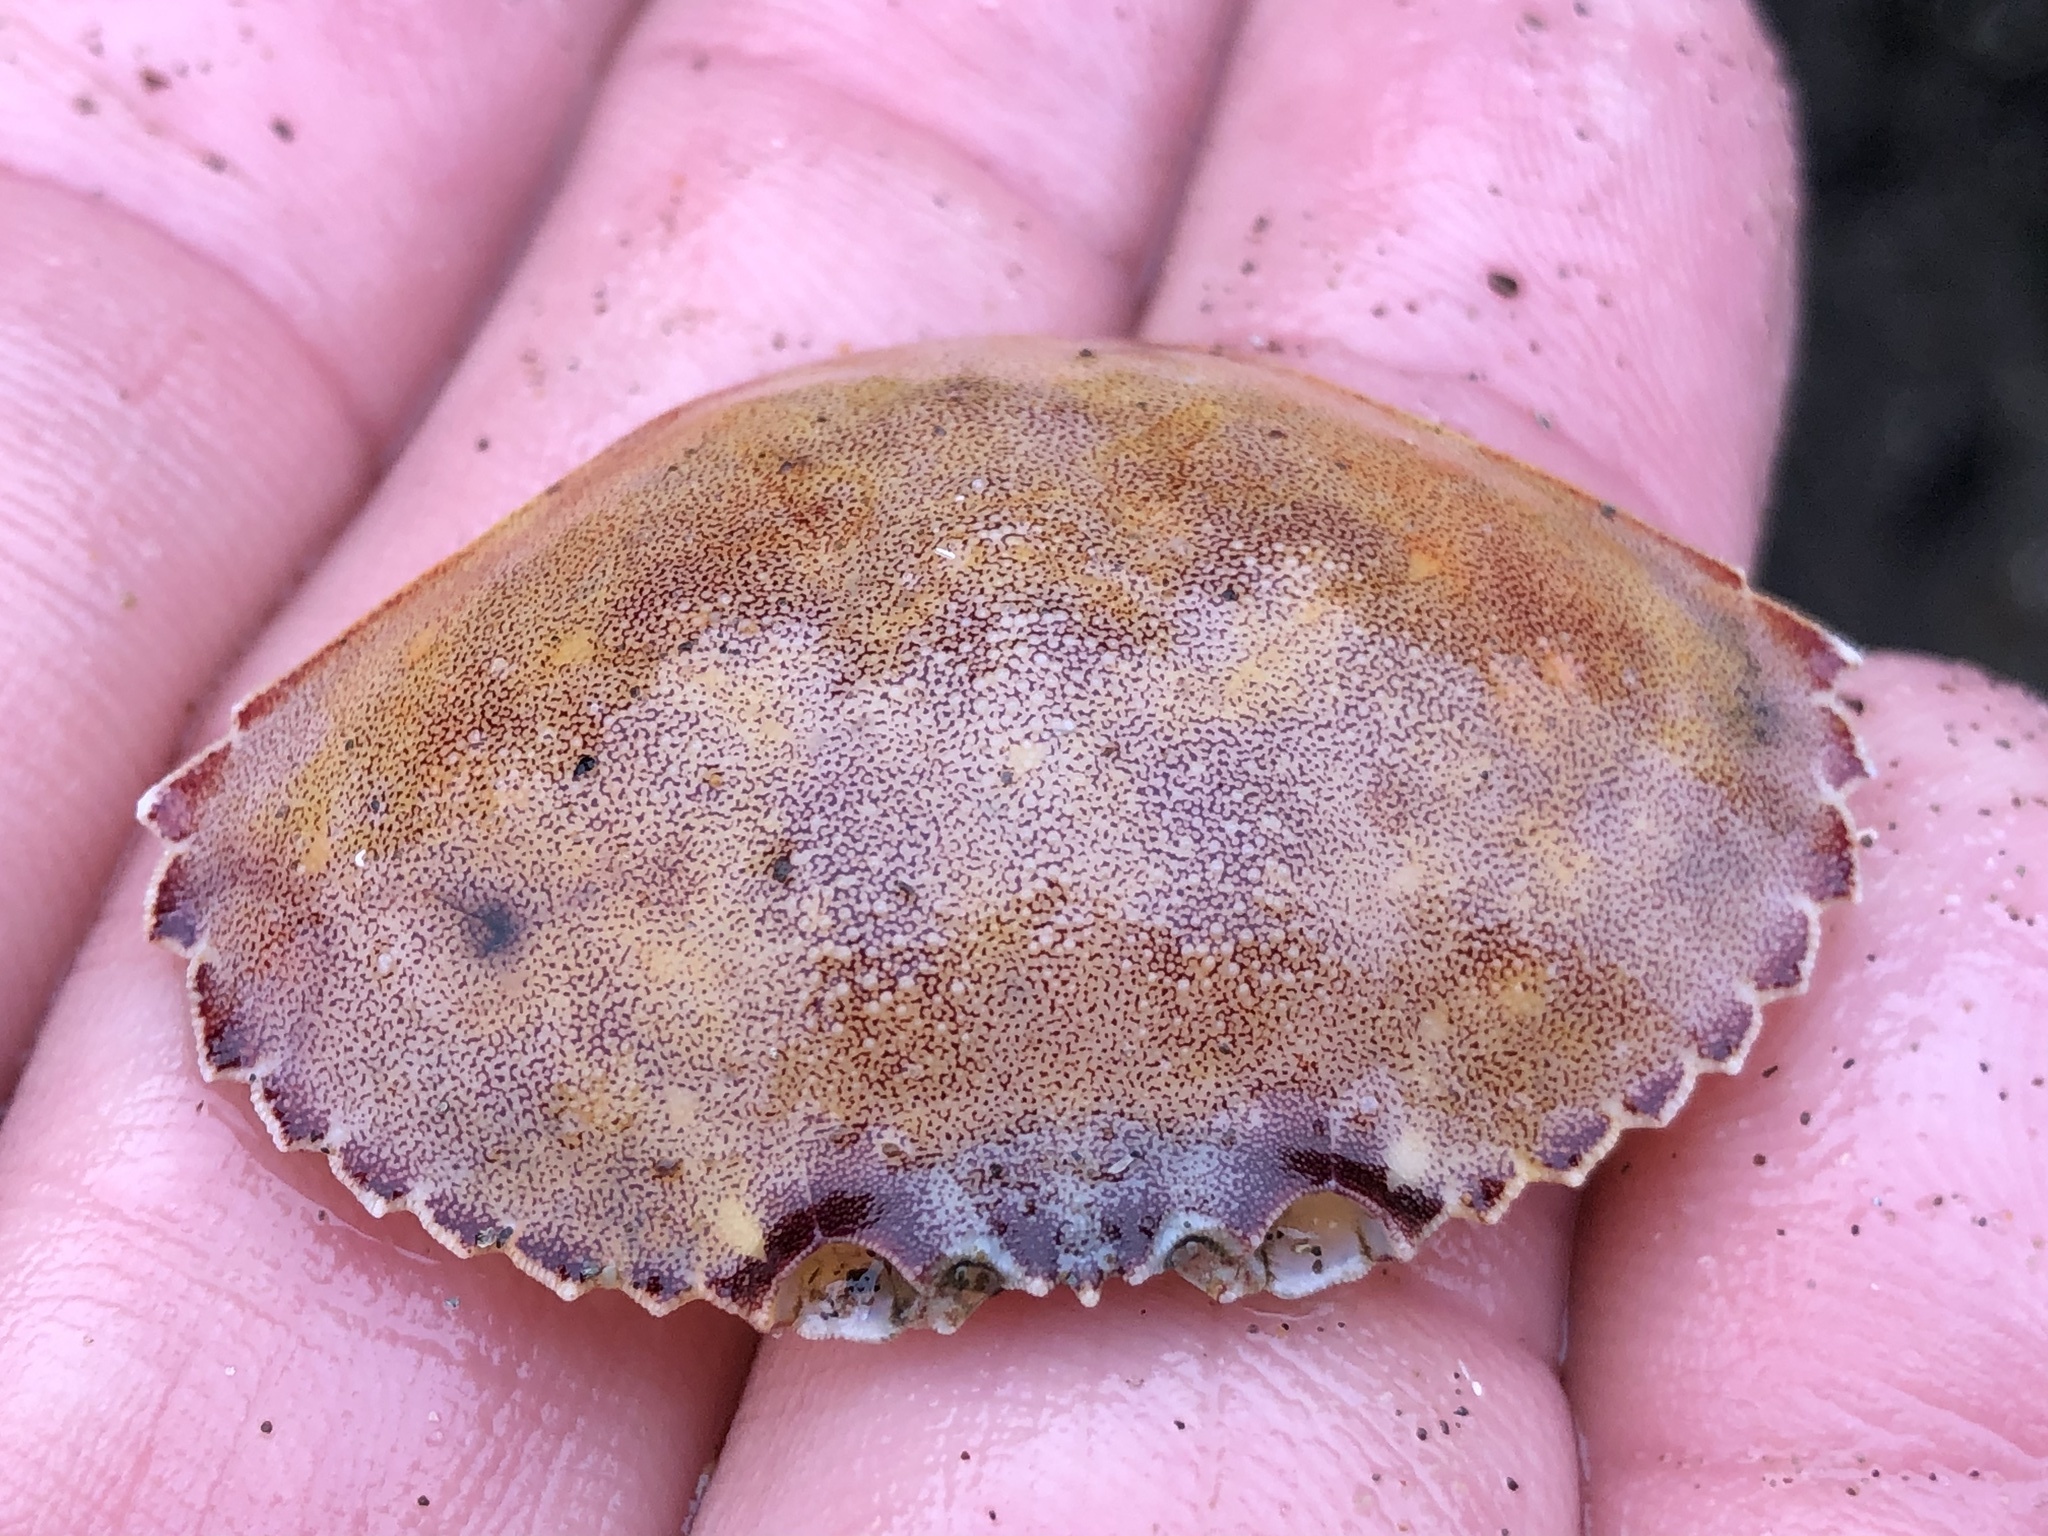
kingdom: Animalia
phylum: Arthropoda
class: Malacostraca
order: Decapoda
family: Cancridae
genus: Metacarcinus
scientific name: Metacarcinus gracilis
